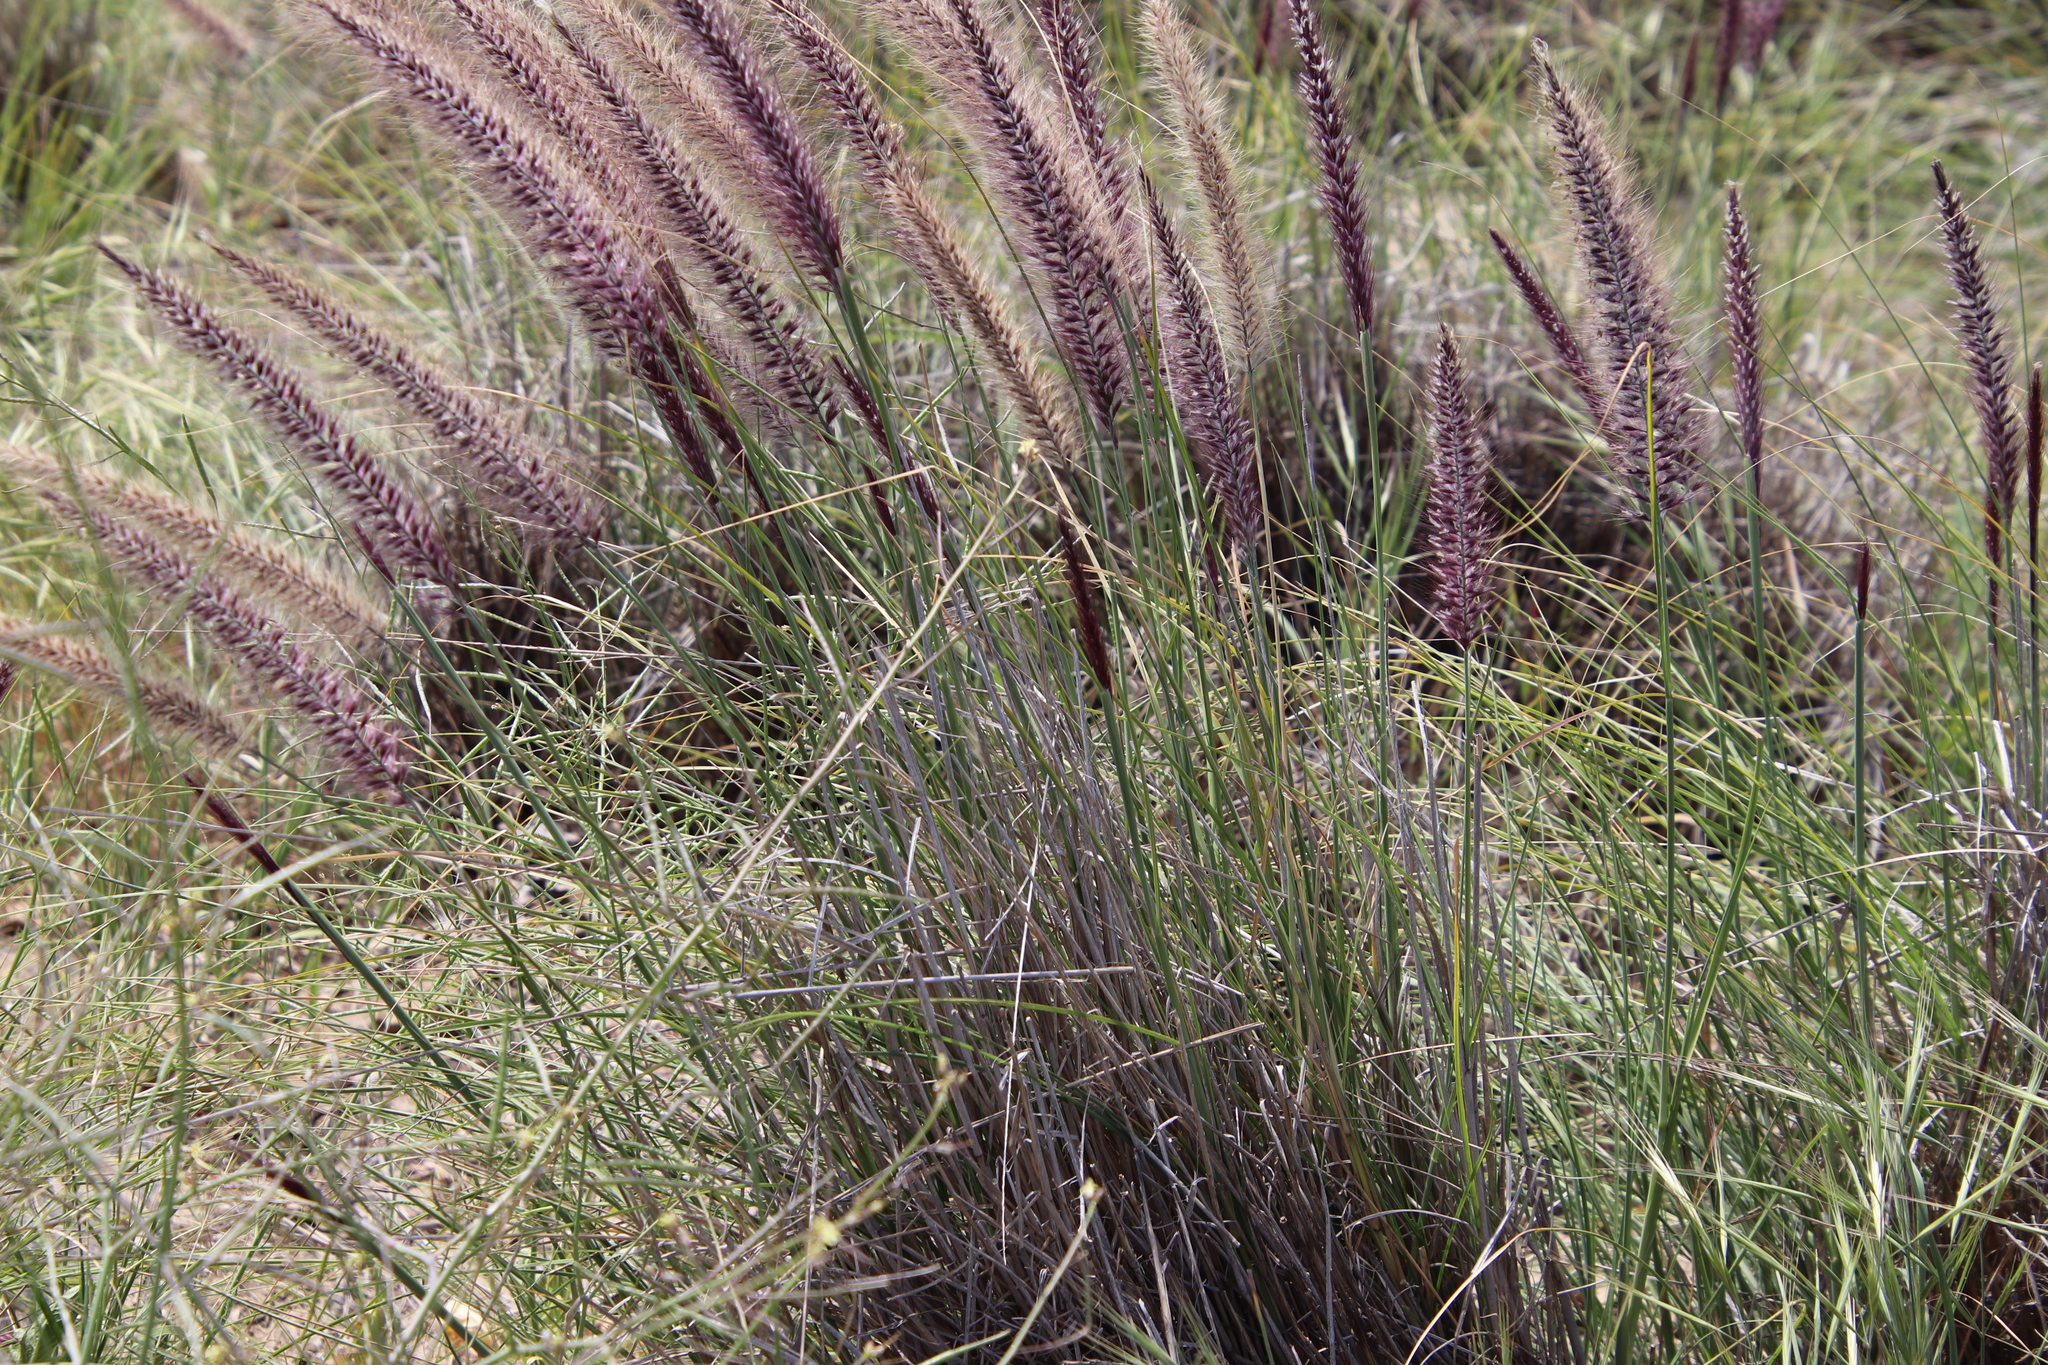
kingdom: Plantae
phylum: Tracheophyta
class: Liliopsida
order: Poales
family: Poaceae
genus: Cenchrus
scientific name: Cenchrus setaceus
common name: Crimson fountaingrass
